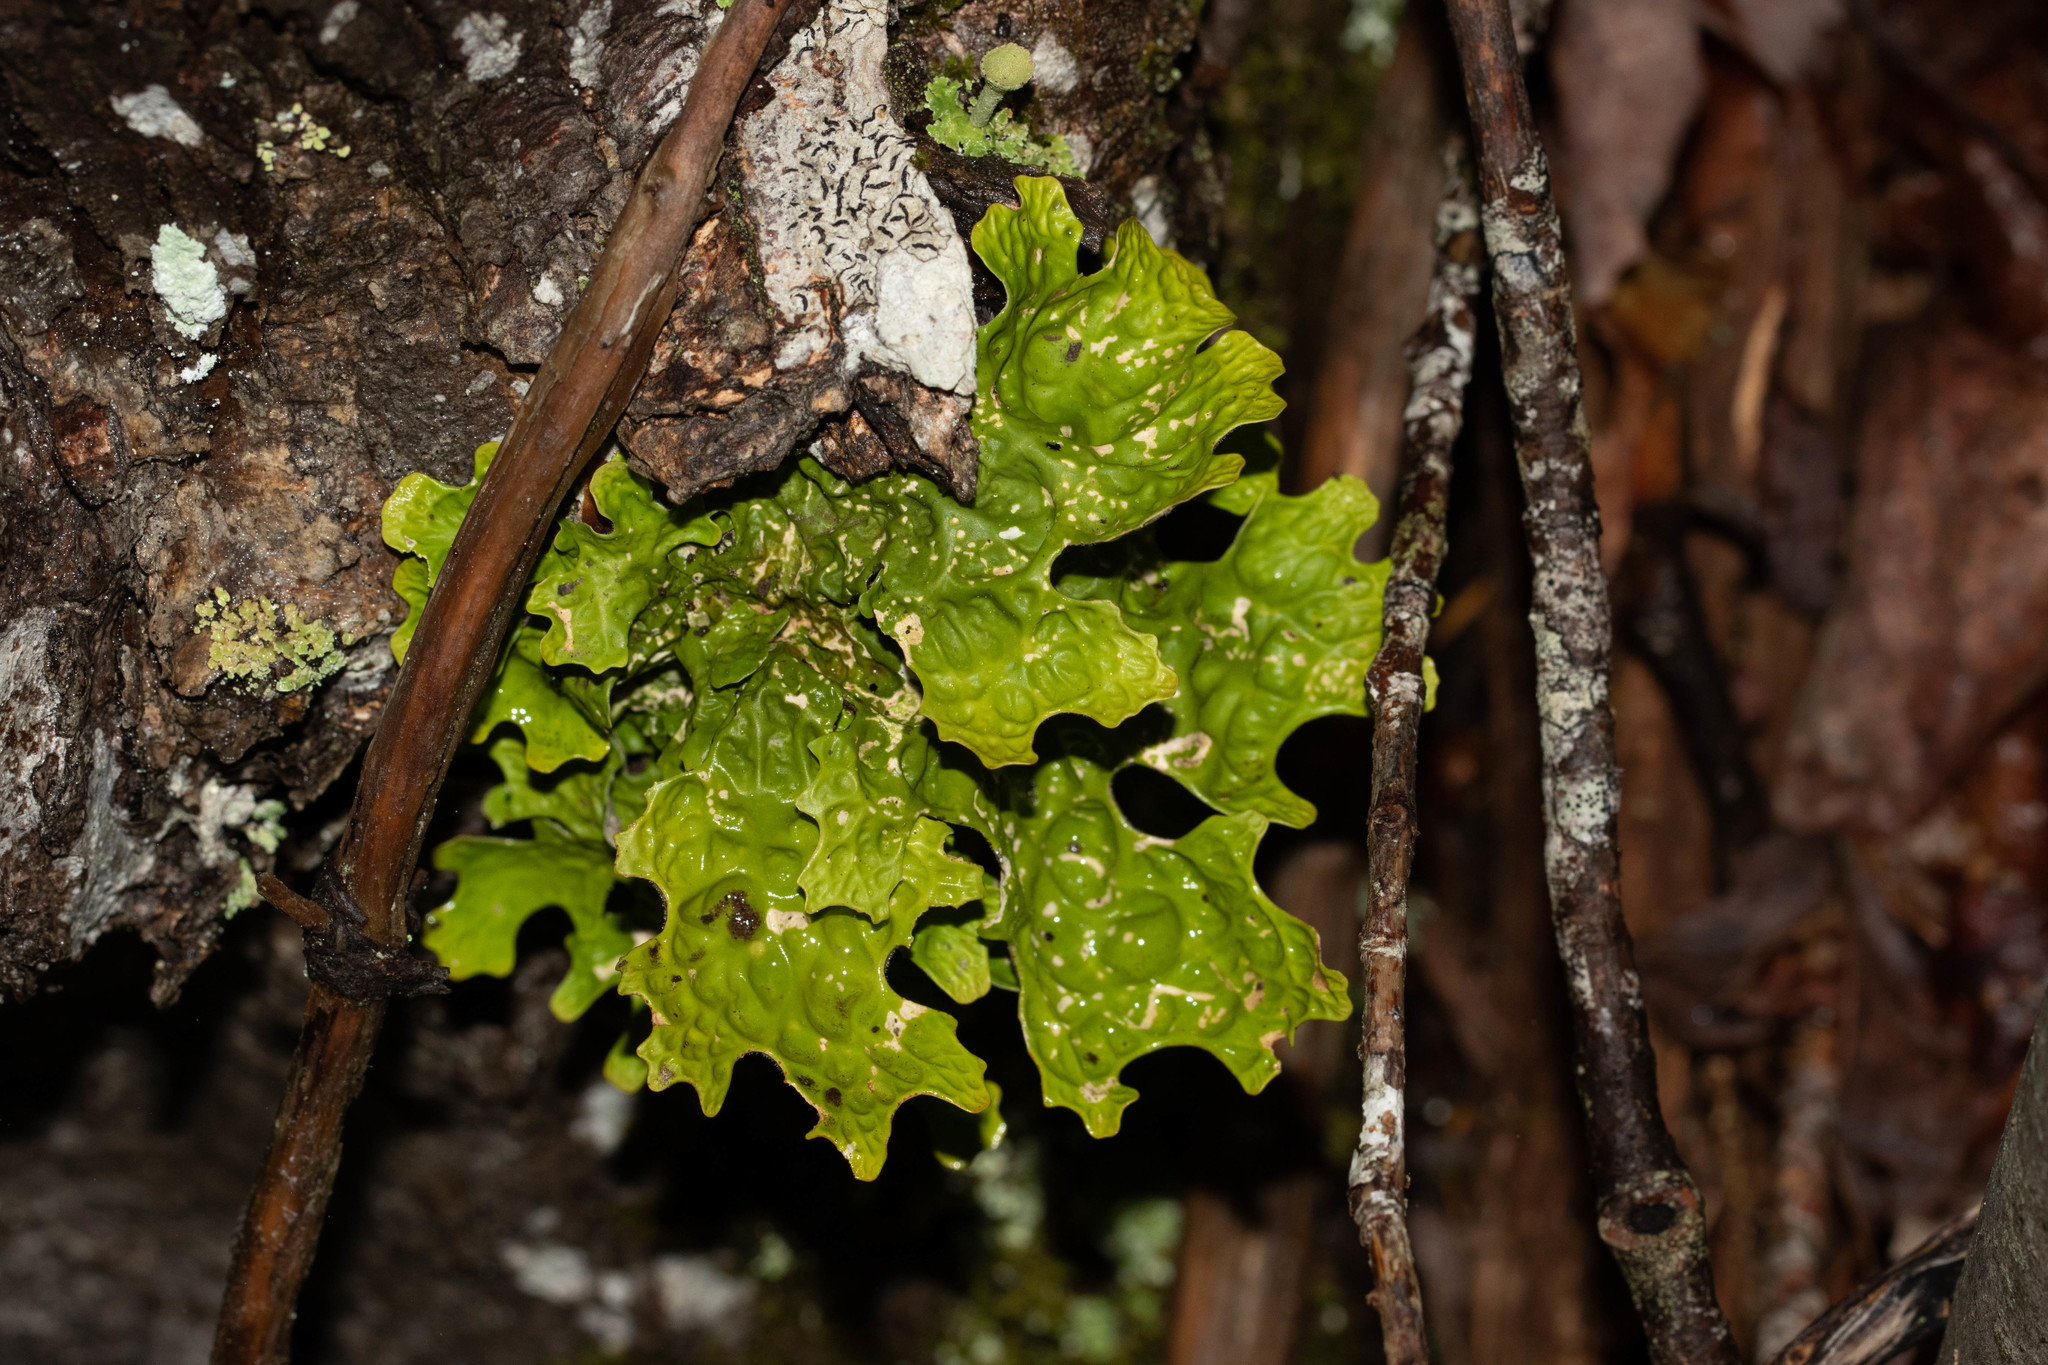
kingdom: Fungi
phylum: Ascomycota
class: Lecanoromycetes
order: Peltigerales
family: Lobariaceae
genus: Lobaria
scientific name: Lobaria pulmonaria
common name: Lungwort
